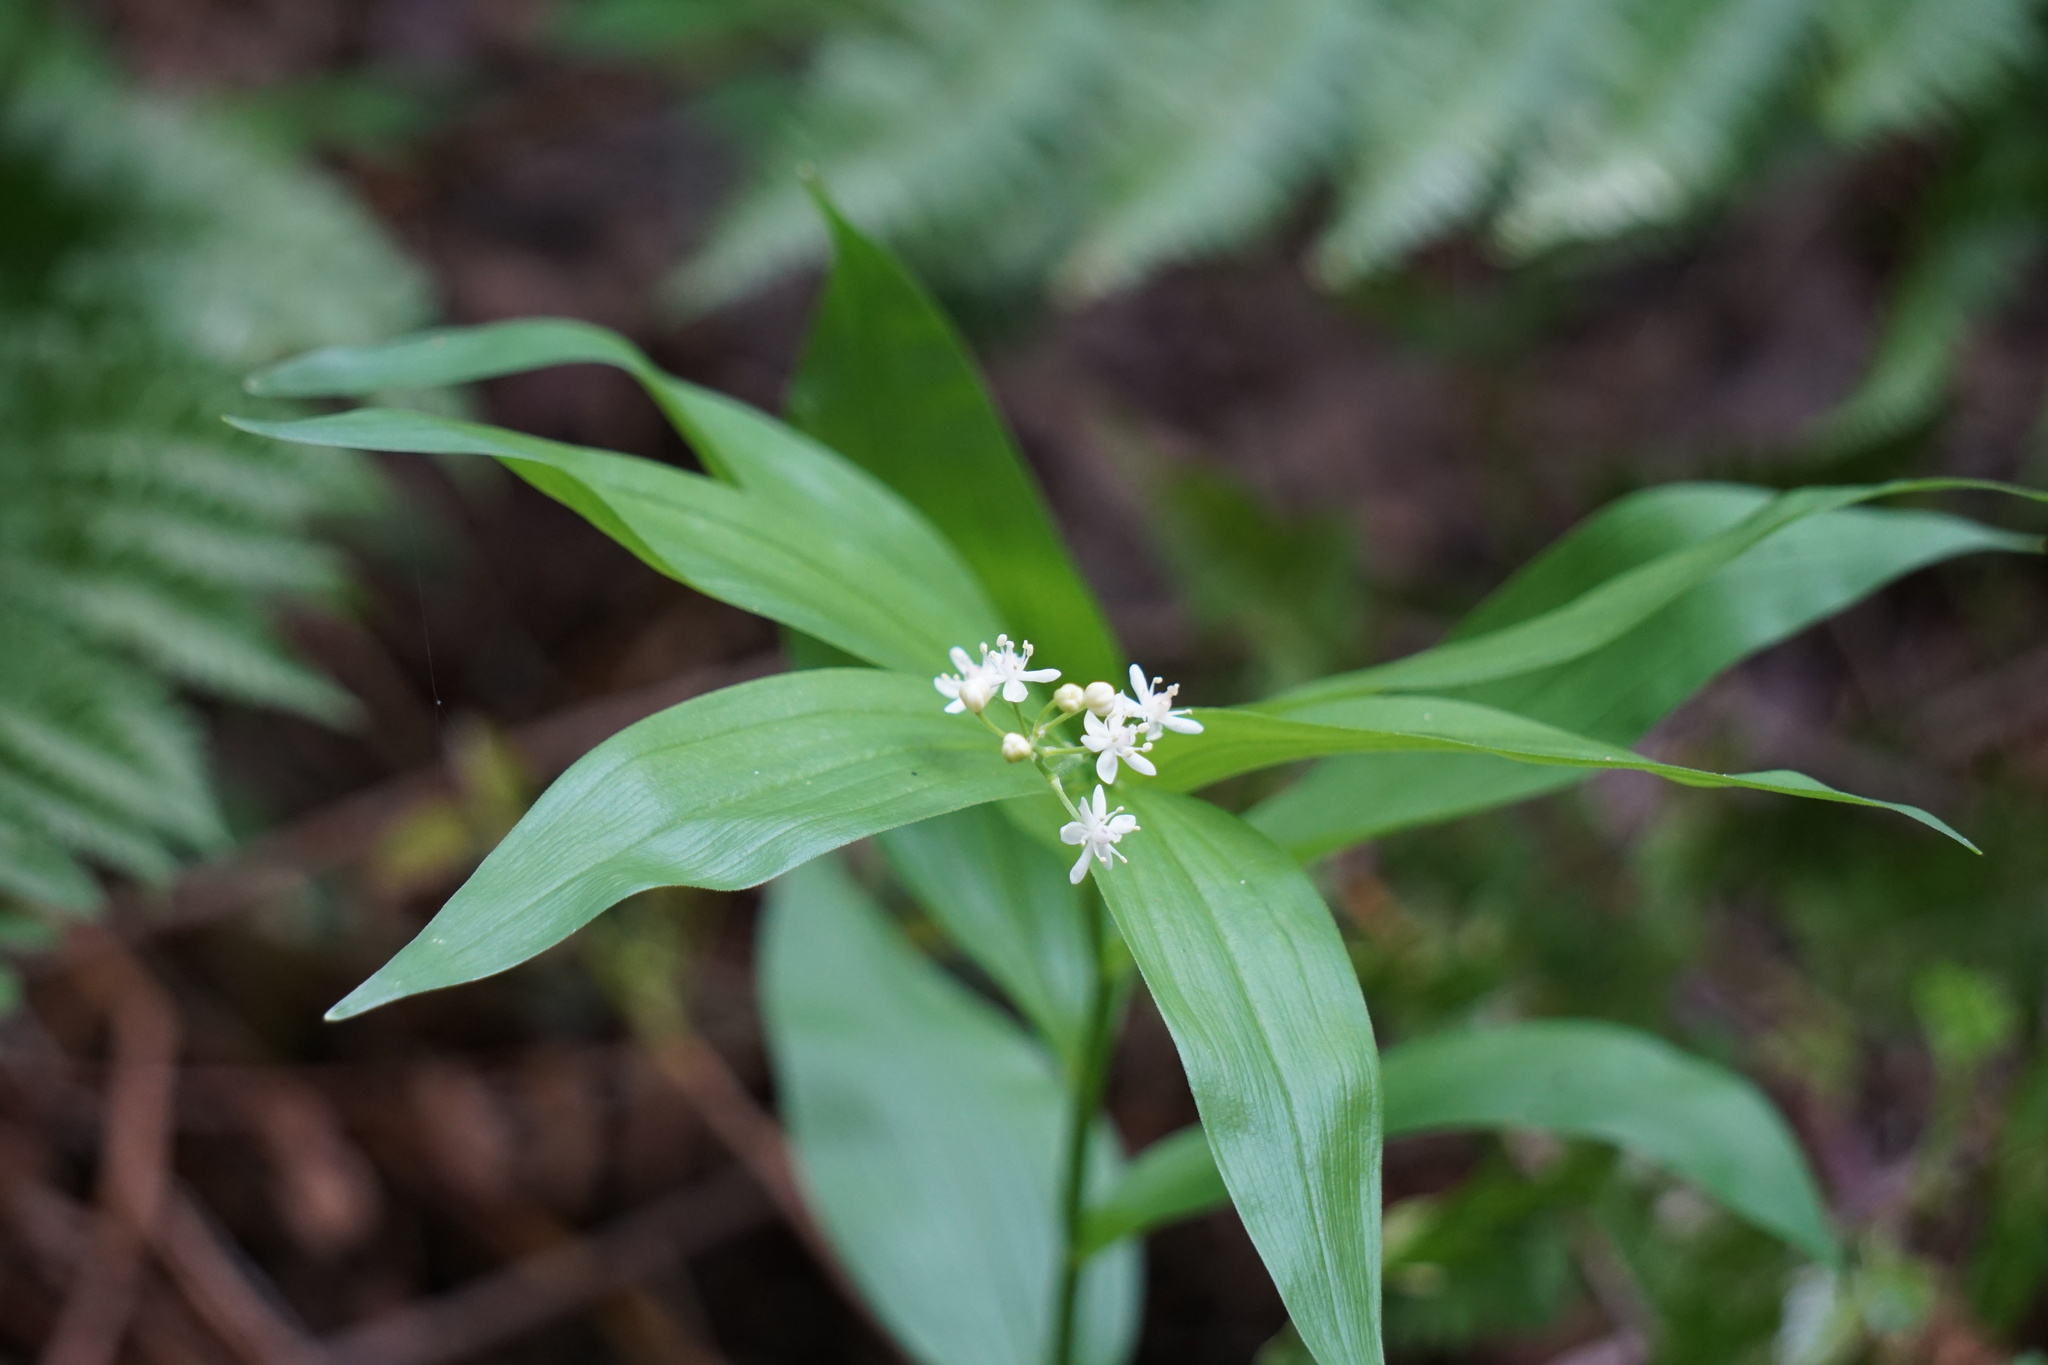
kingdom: Plantae
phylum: Tracheophyta
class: Liliopsida
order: Asparagales
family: Asparagaceae
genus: Maianthemum
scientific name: Maianthemum stellatum
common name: Little false solomon's seal
